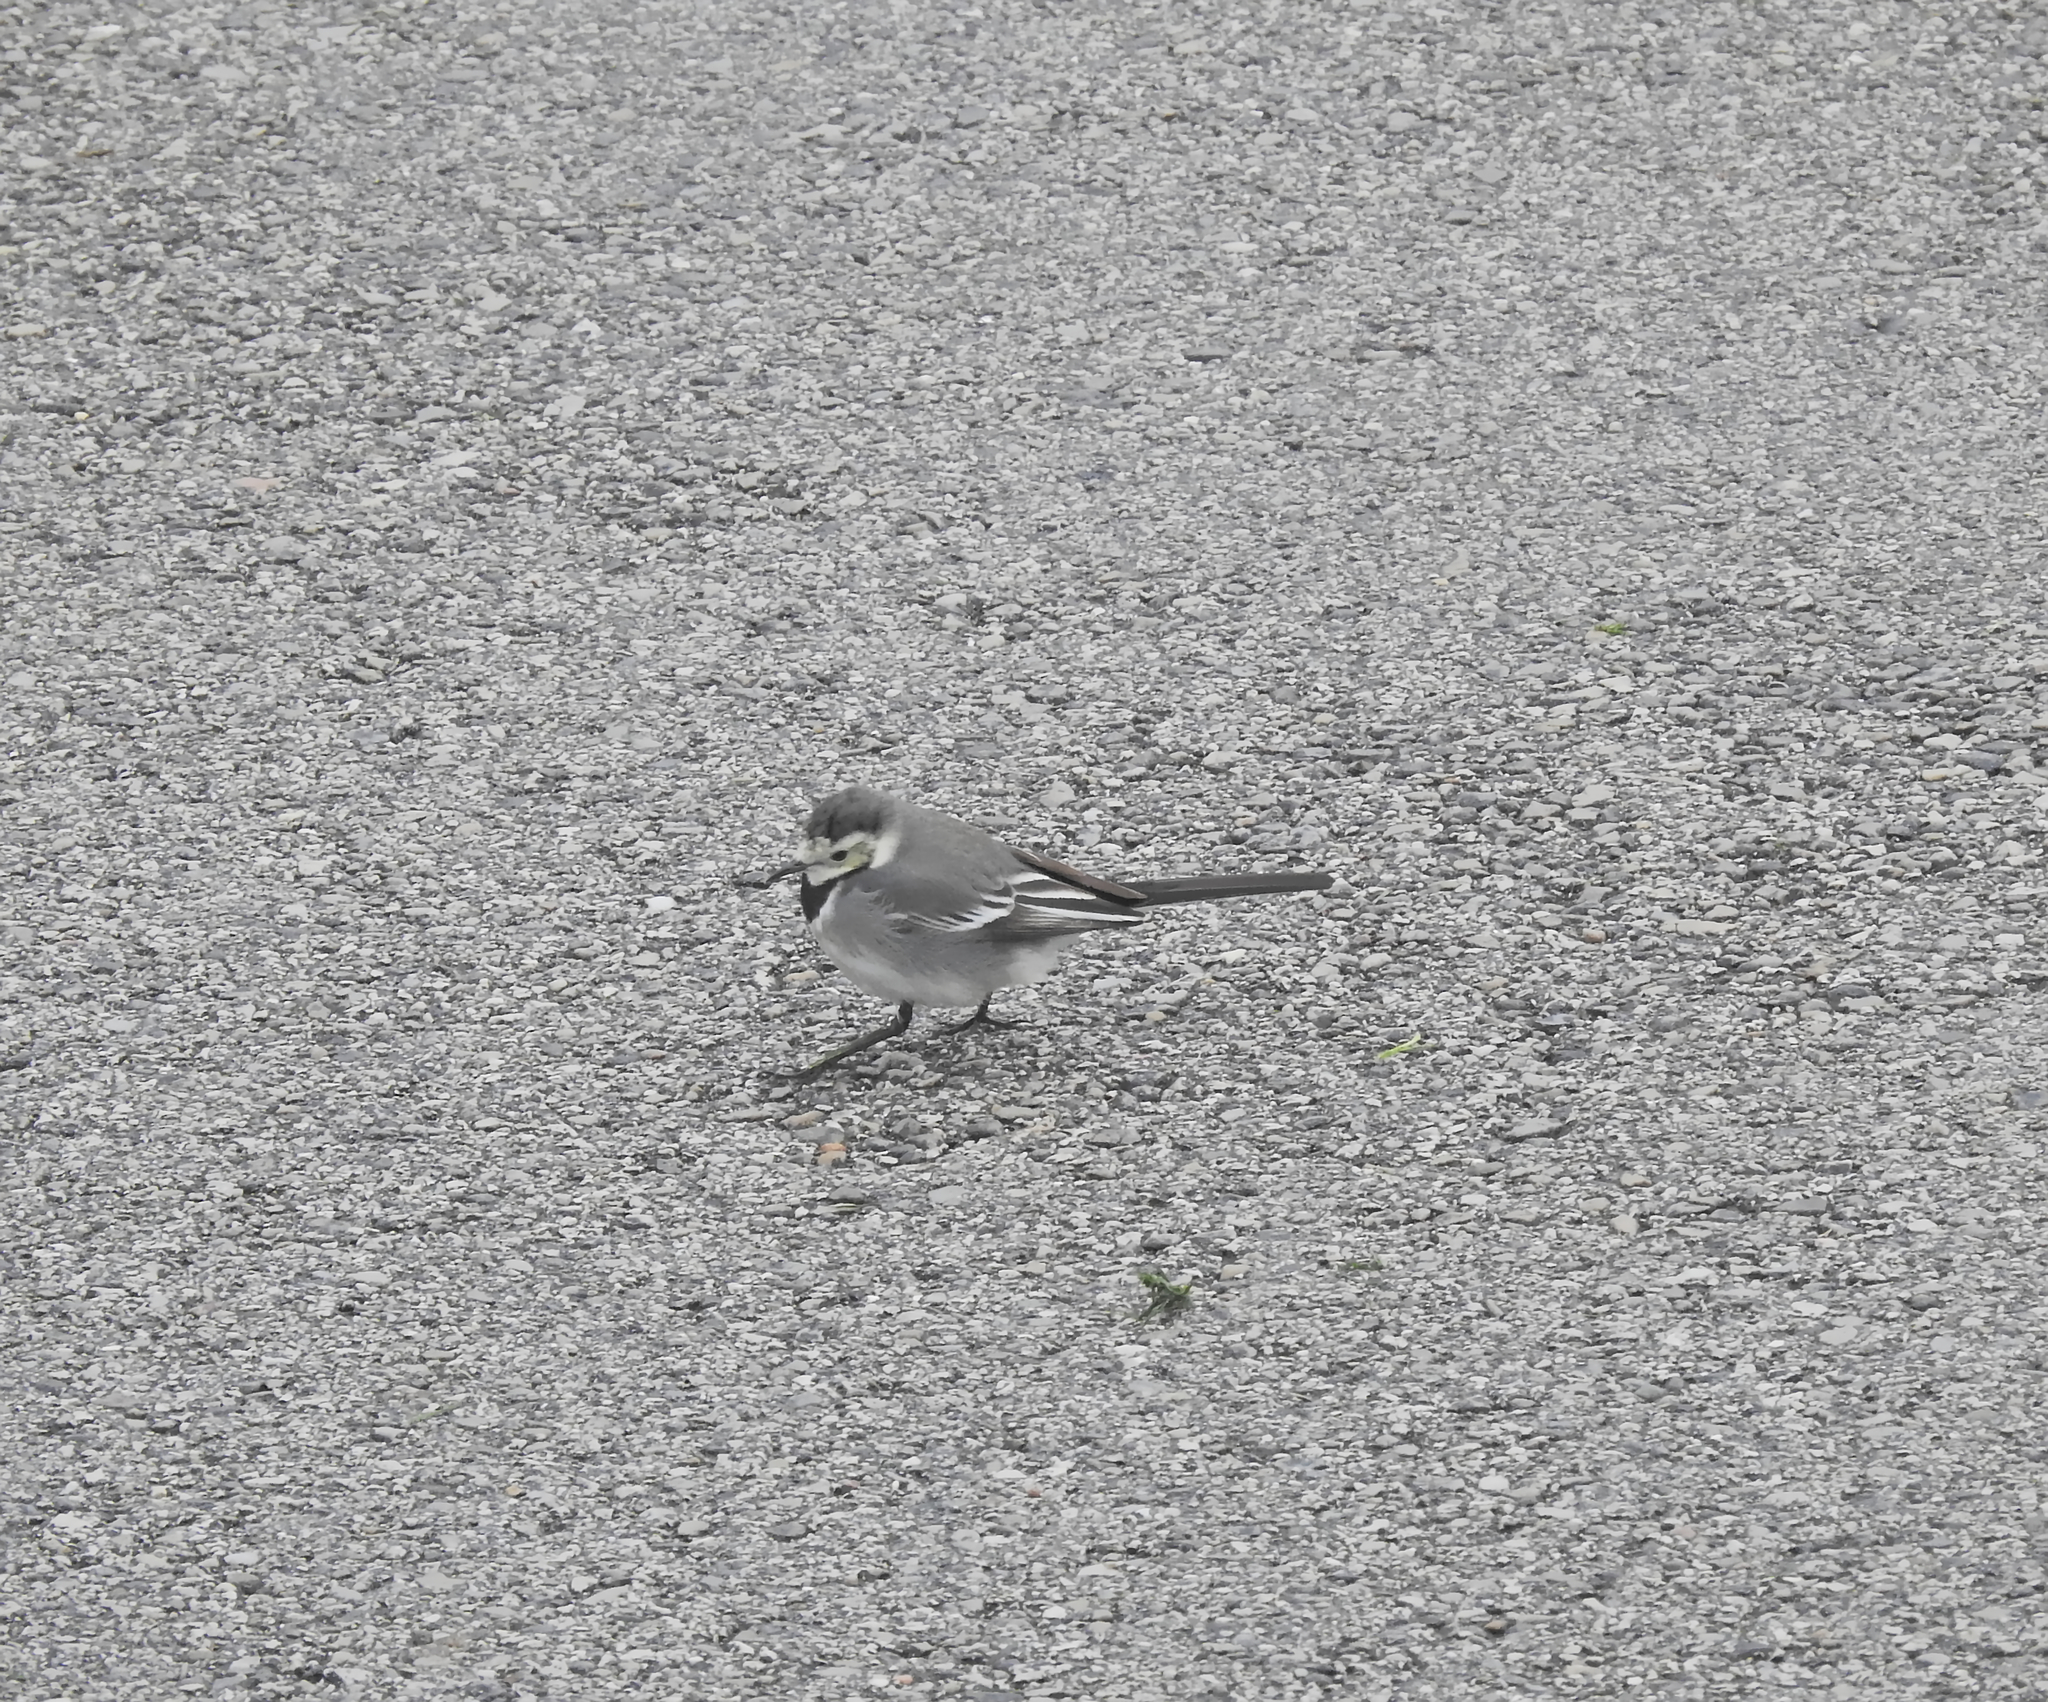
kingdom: Animalia
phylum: Chordata
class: Aves
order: Passeriformes
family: Motacillidae
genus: Motacilla
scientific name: Motacilla alba
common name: White wagtail
